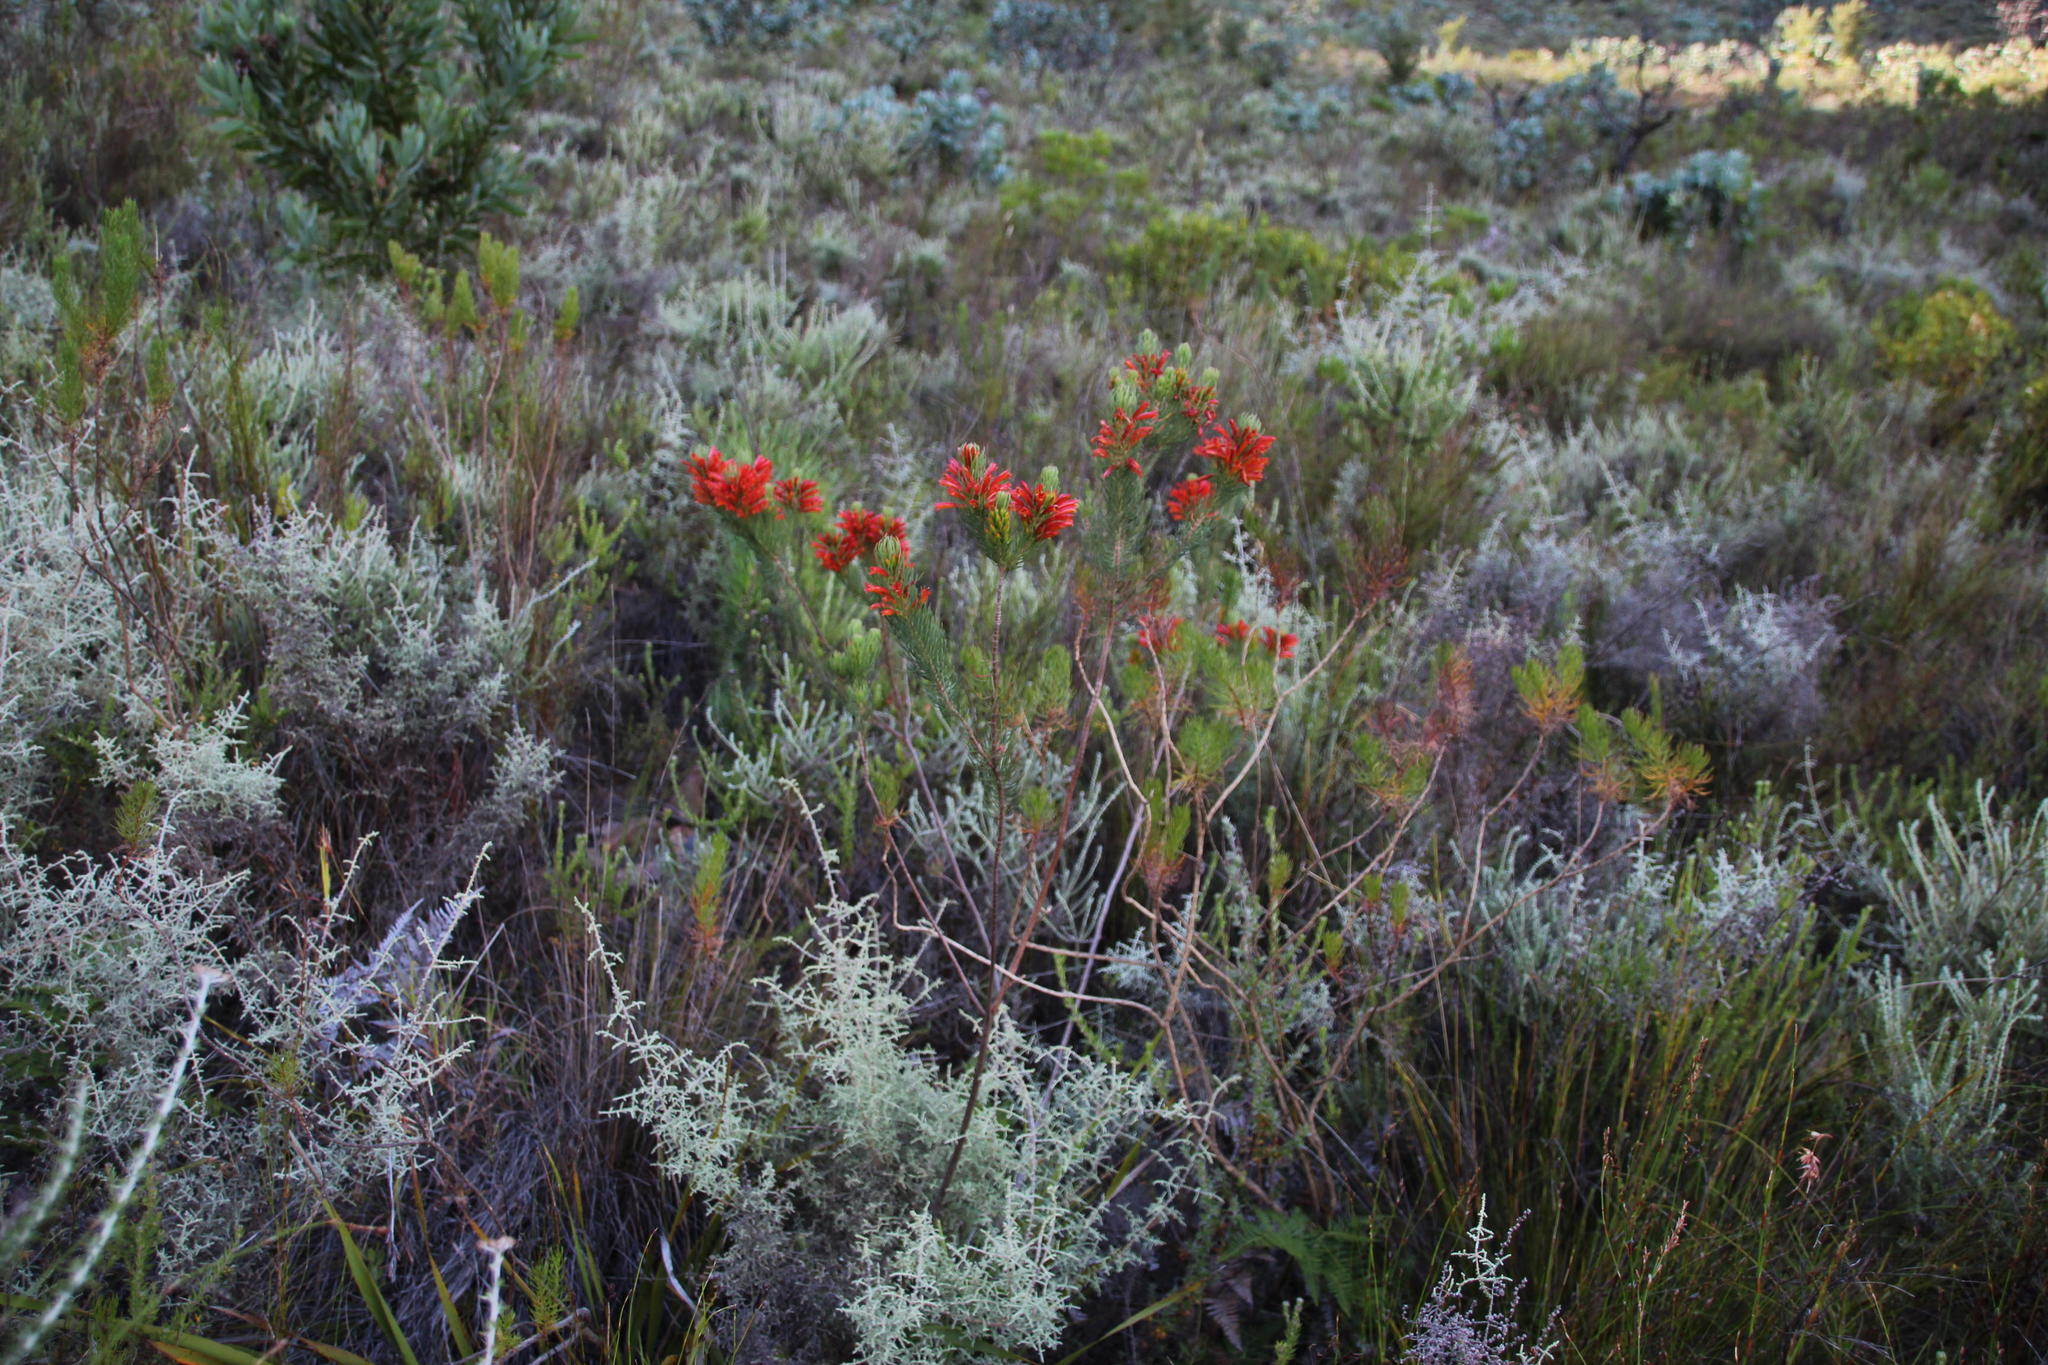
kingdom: Plantae
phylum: Tracheophyta
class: Magnoliopsida
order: Ericales
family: Ericaceae
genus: Erica
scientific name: Erica grandiflora
